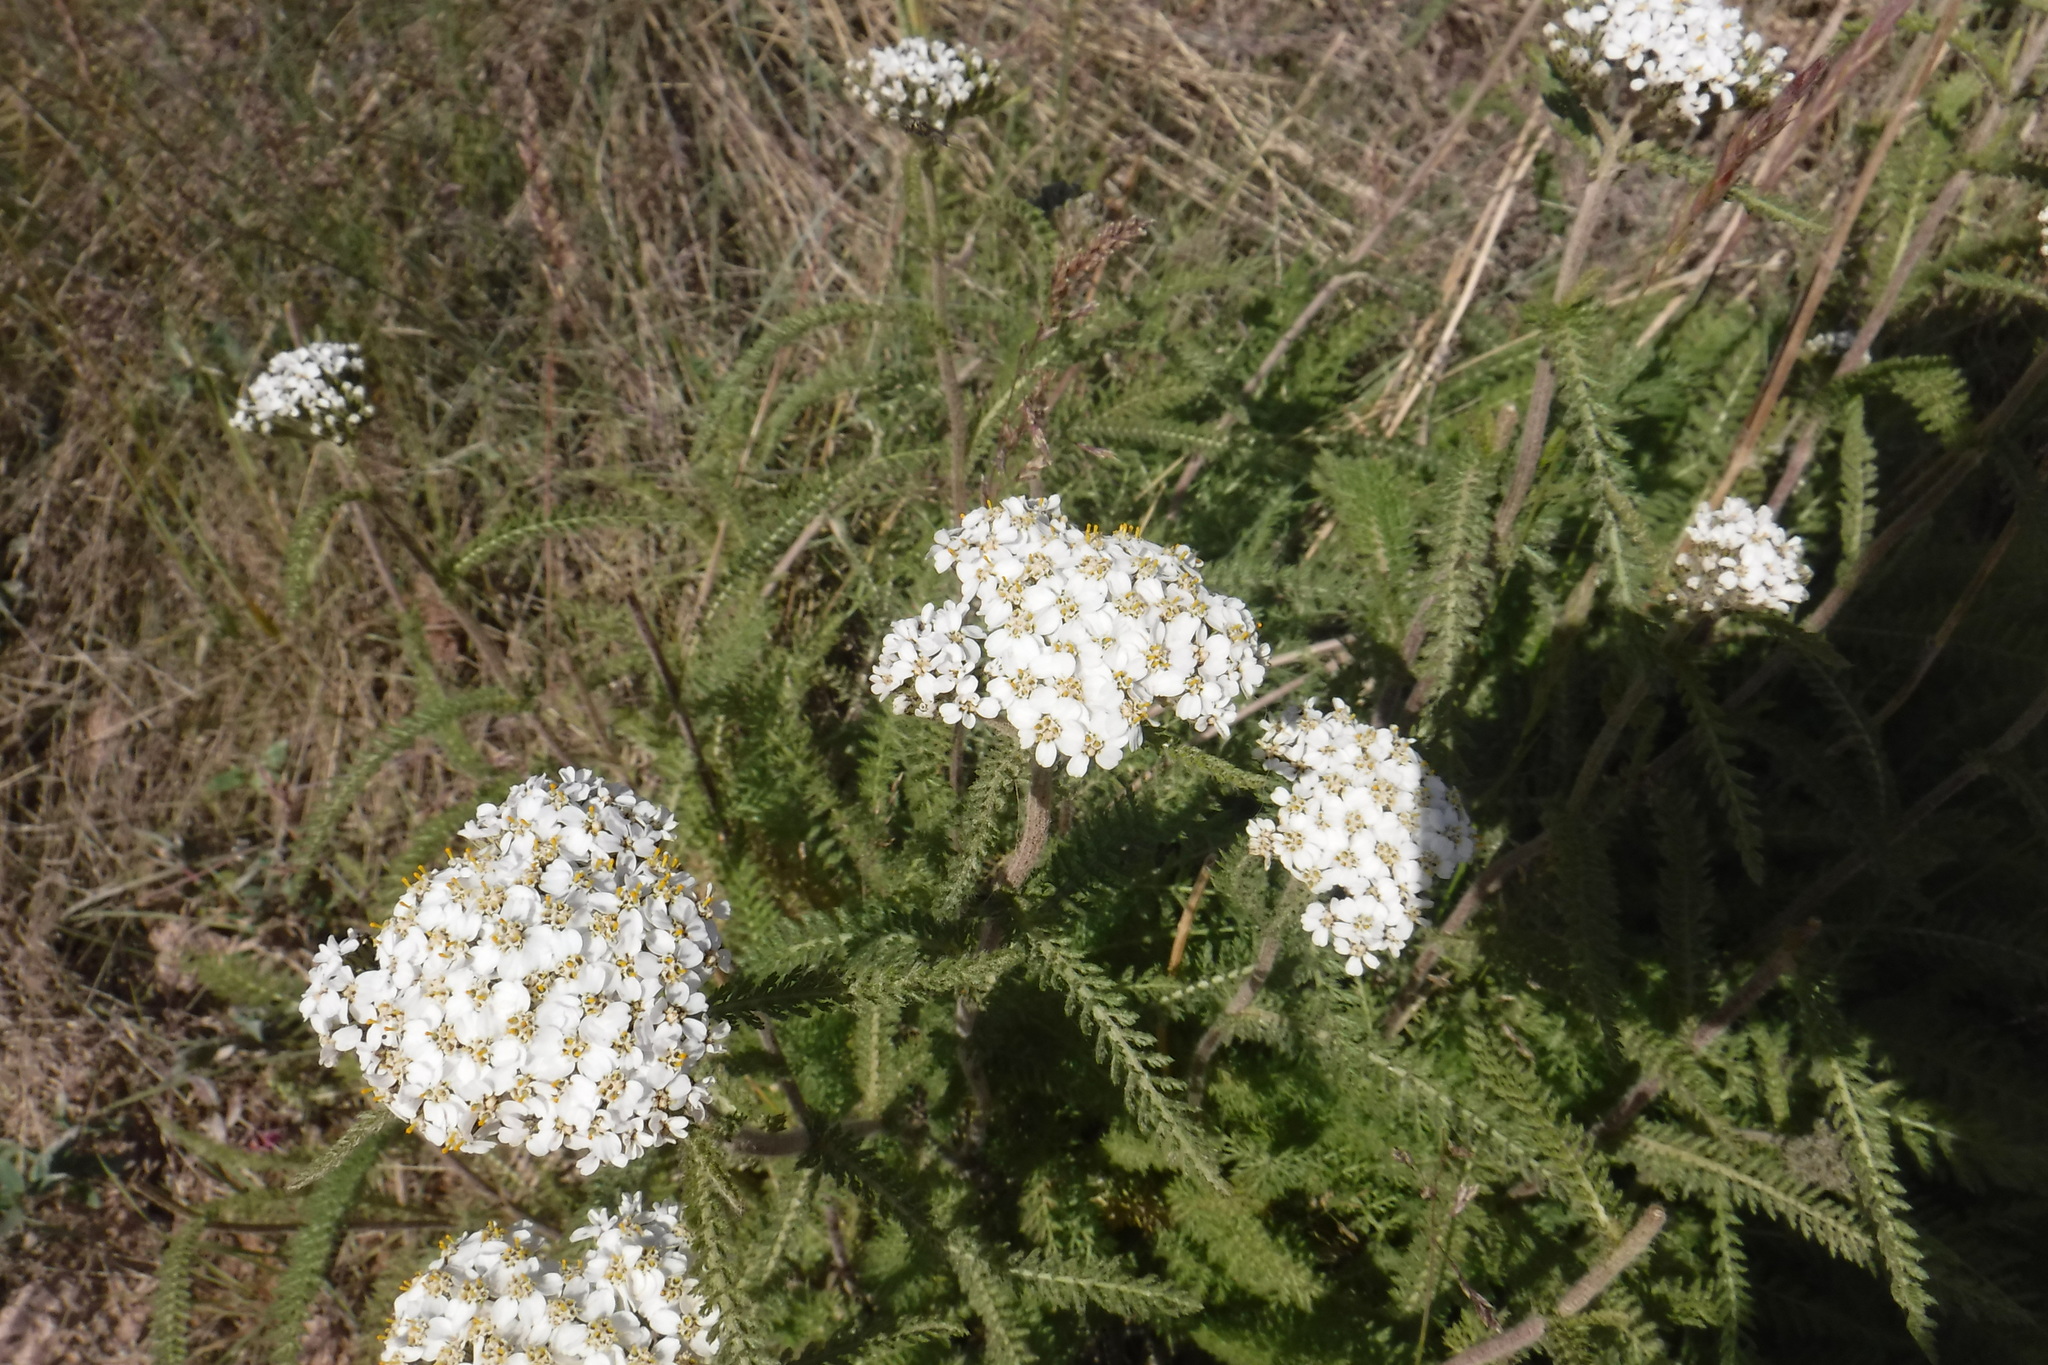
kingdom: Plantae
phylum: Tracheophyta
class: Magnoliopsida
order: Asterales
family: Asteraceae
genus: Achillea
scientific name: Achillea millefolium
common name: Yarrow
